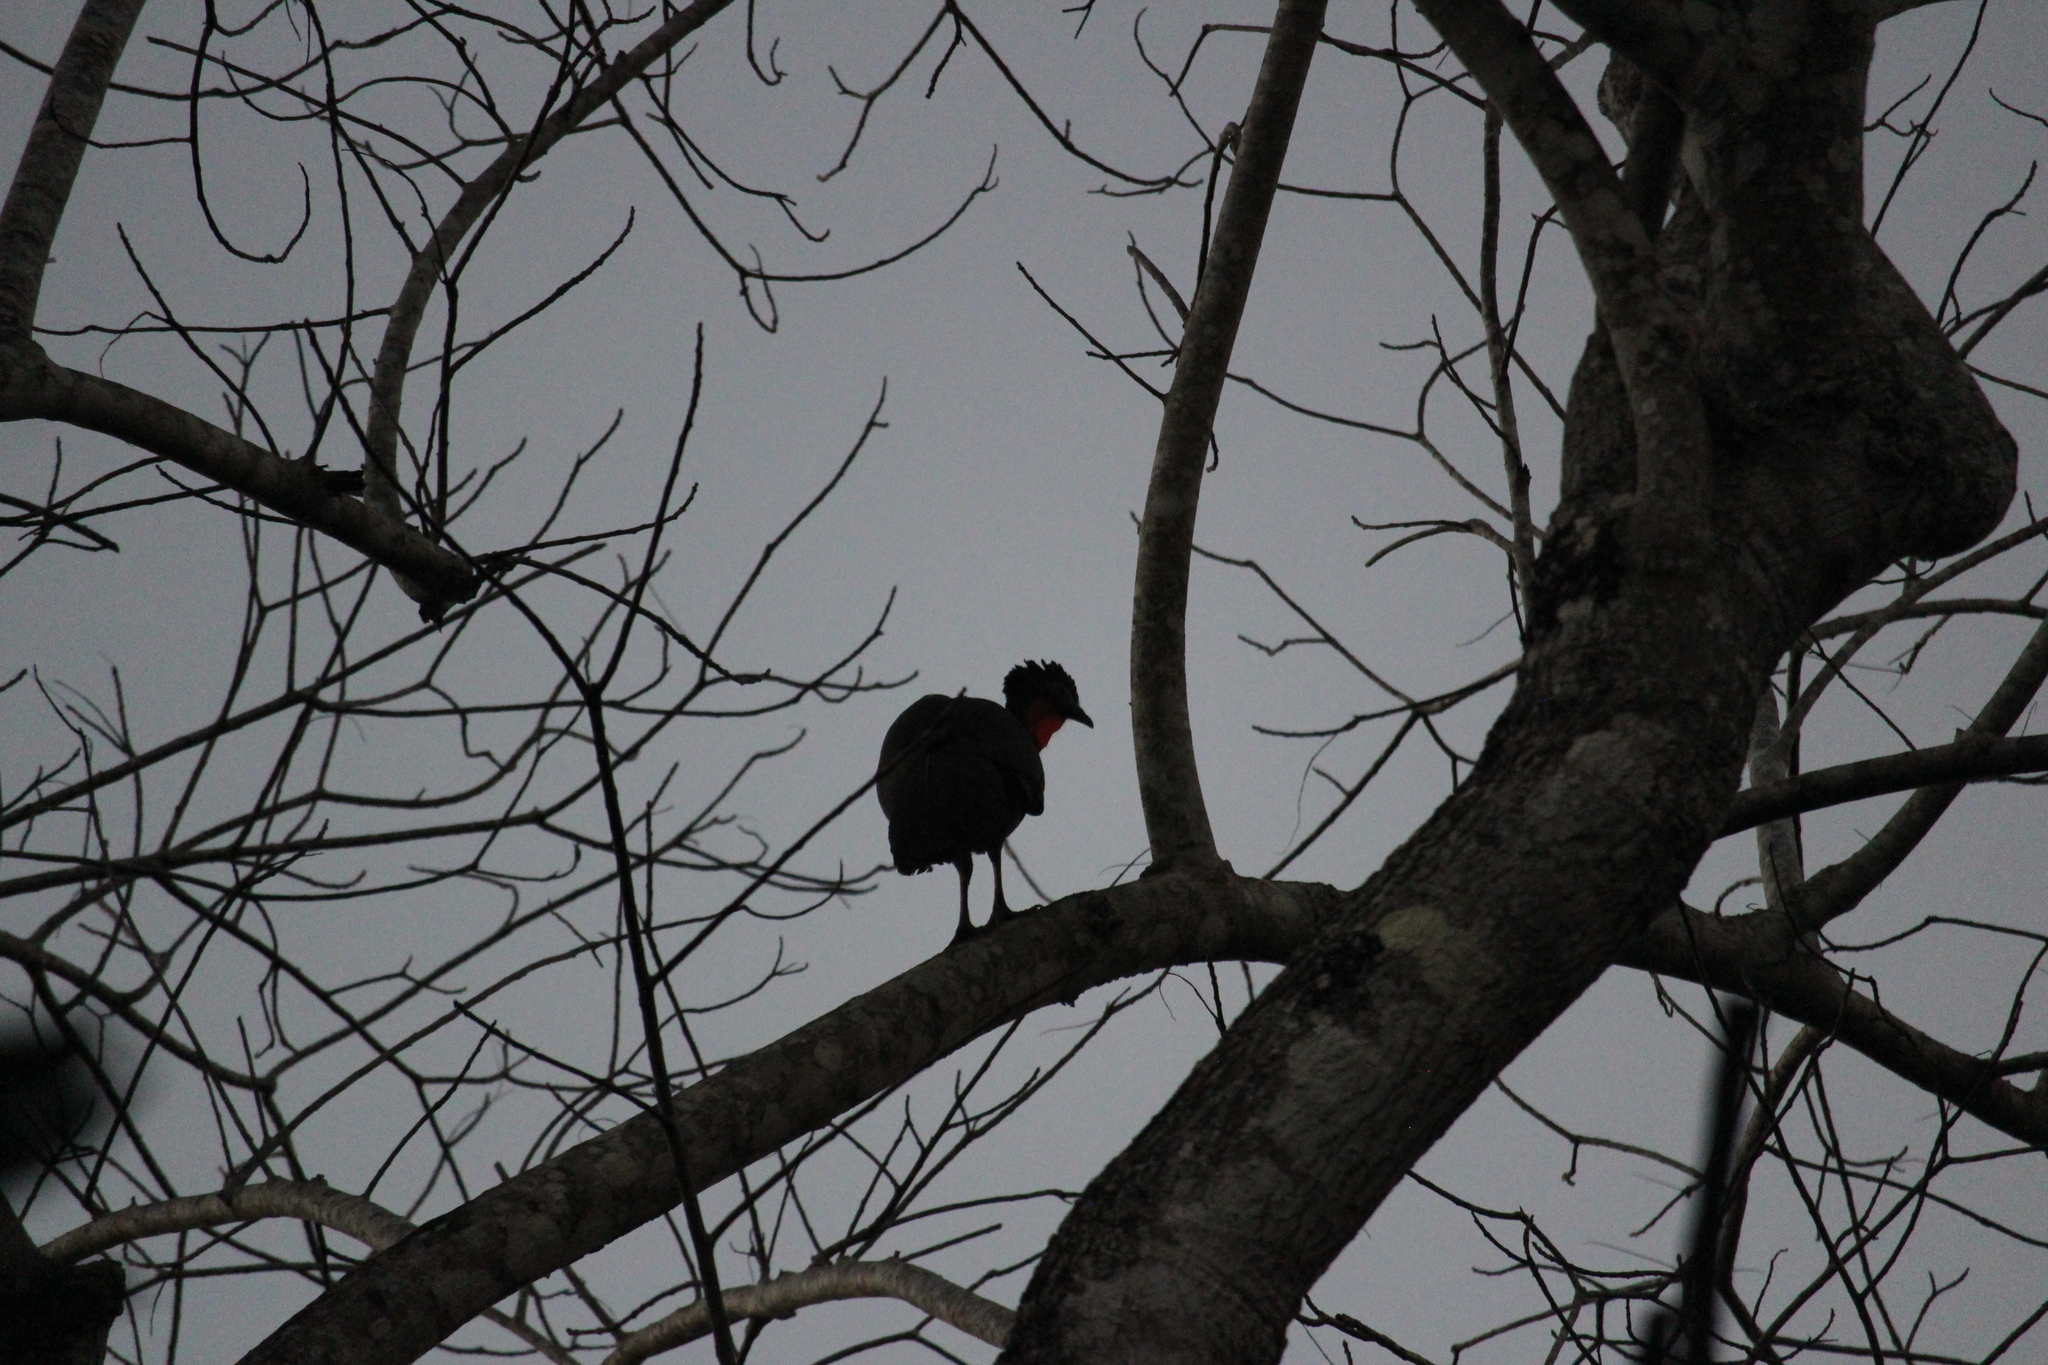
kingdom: Animalia
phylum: Chordata
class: Aves
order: Galliformes
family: Cracidae
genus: Penelope
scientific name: Penelope purpurascens
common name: Crested guan
